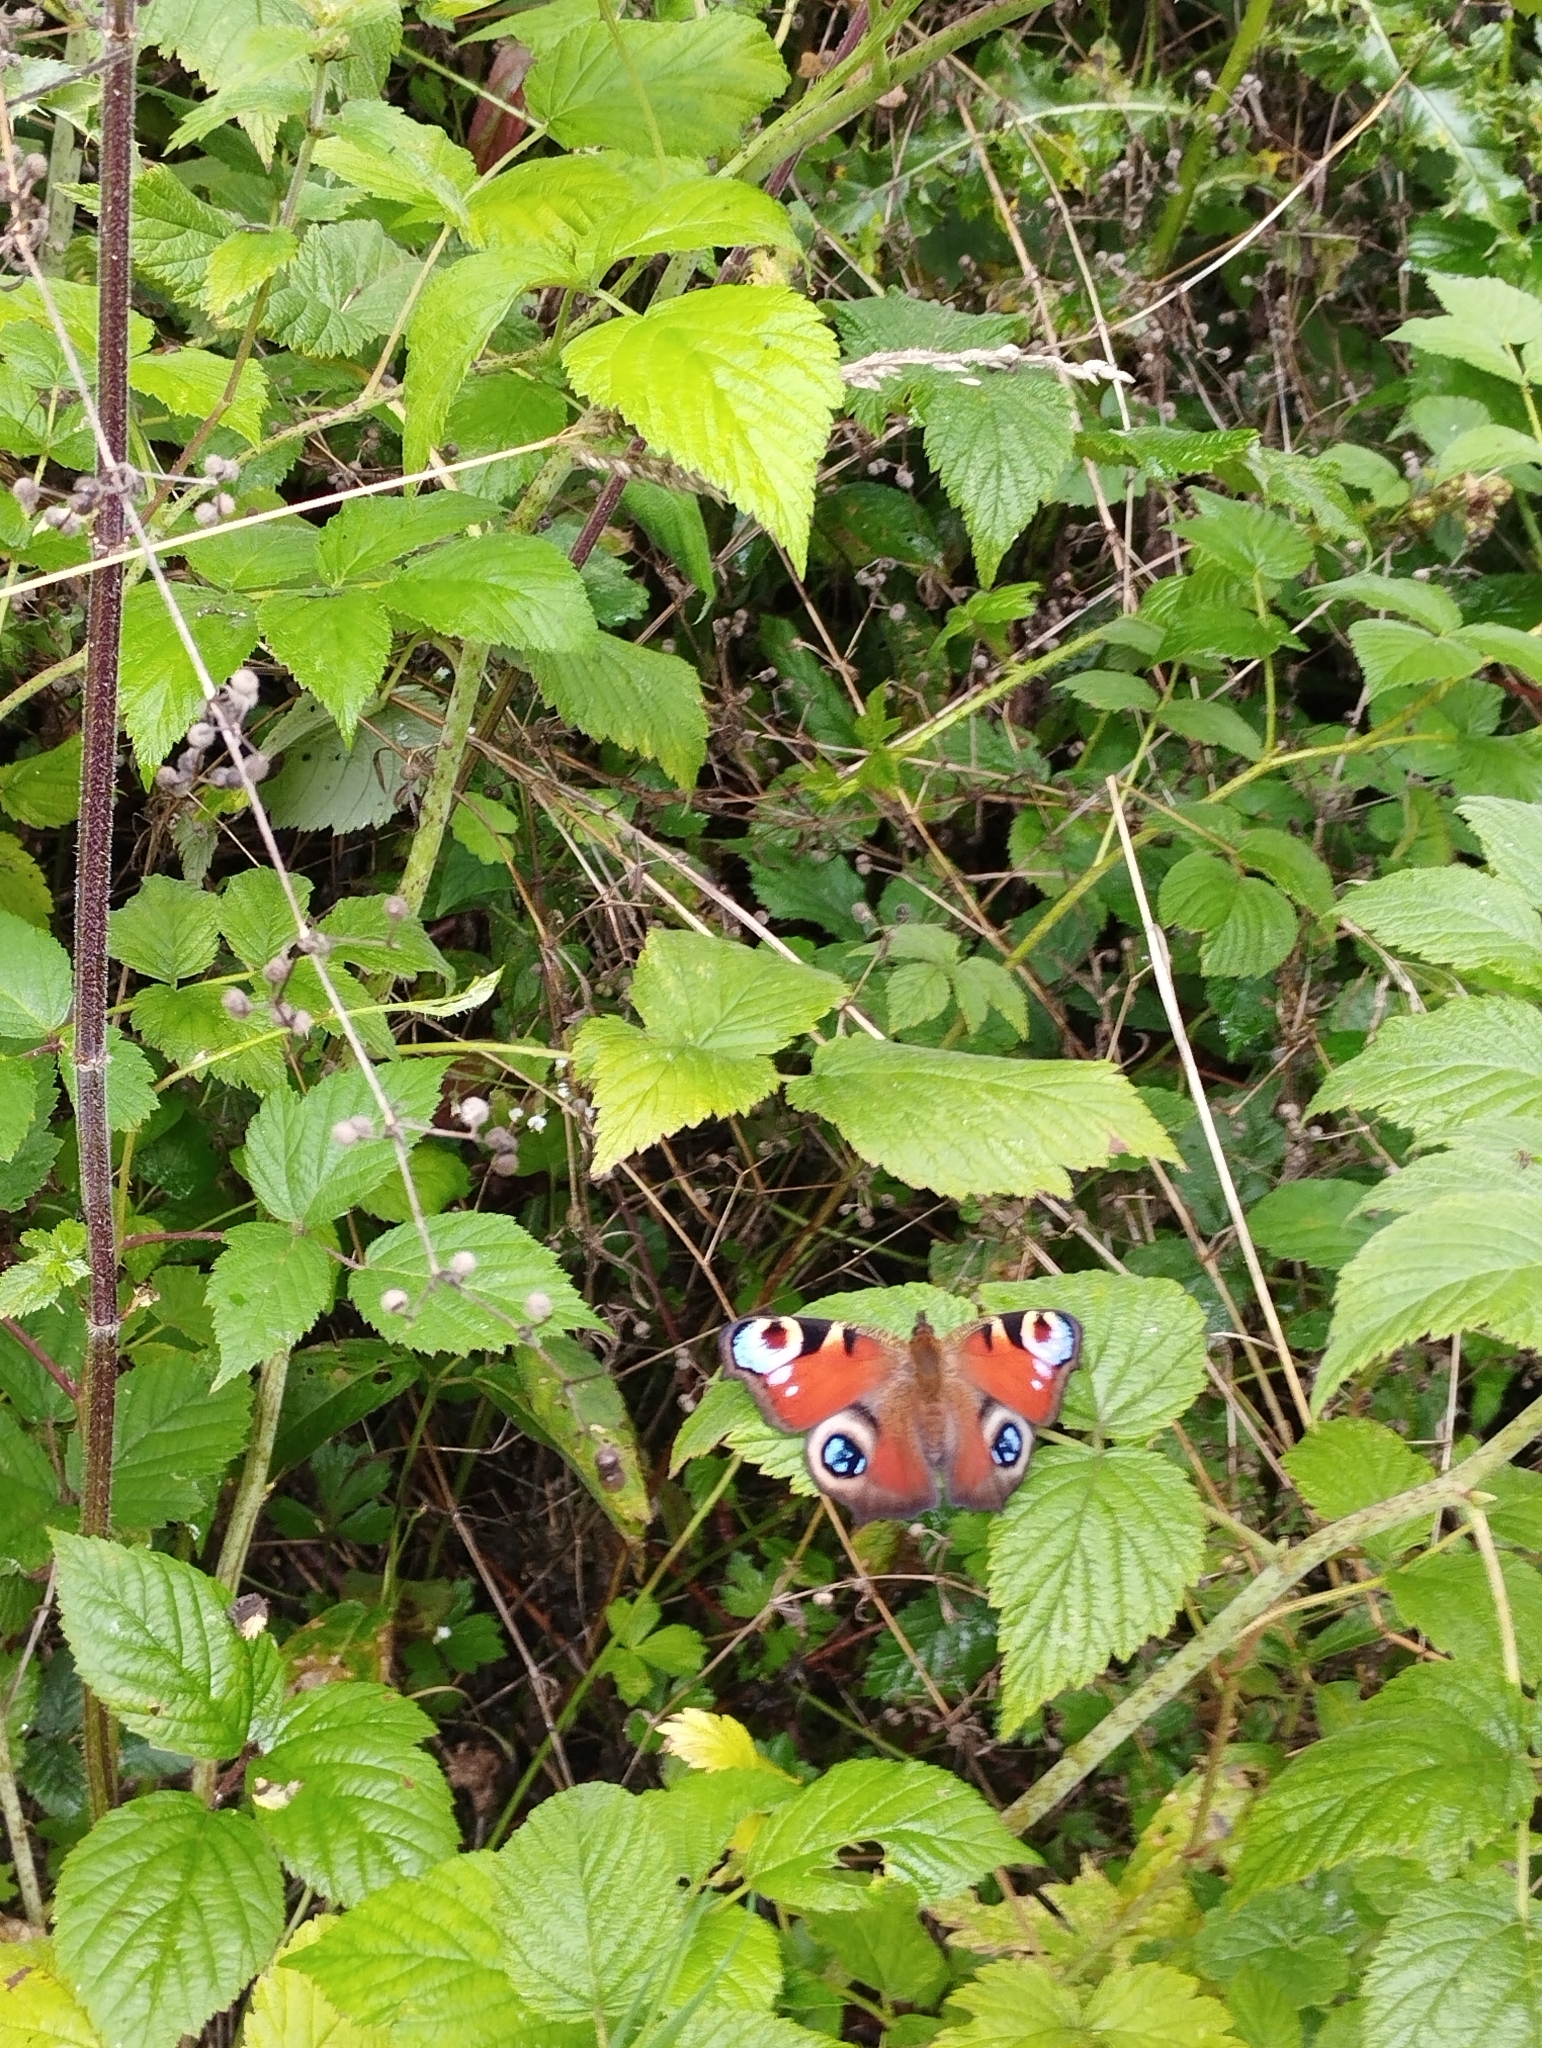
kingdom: Animalia
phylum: Arthropoda
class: Insecta
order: Lepidoptera
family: Nymphalidae
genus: Aglais
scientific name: Aglais io
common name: Peacock
